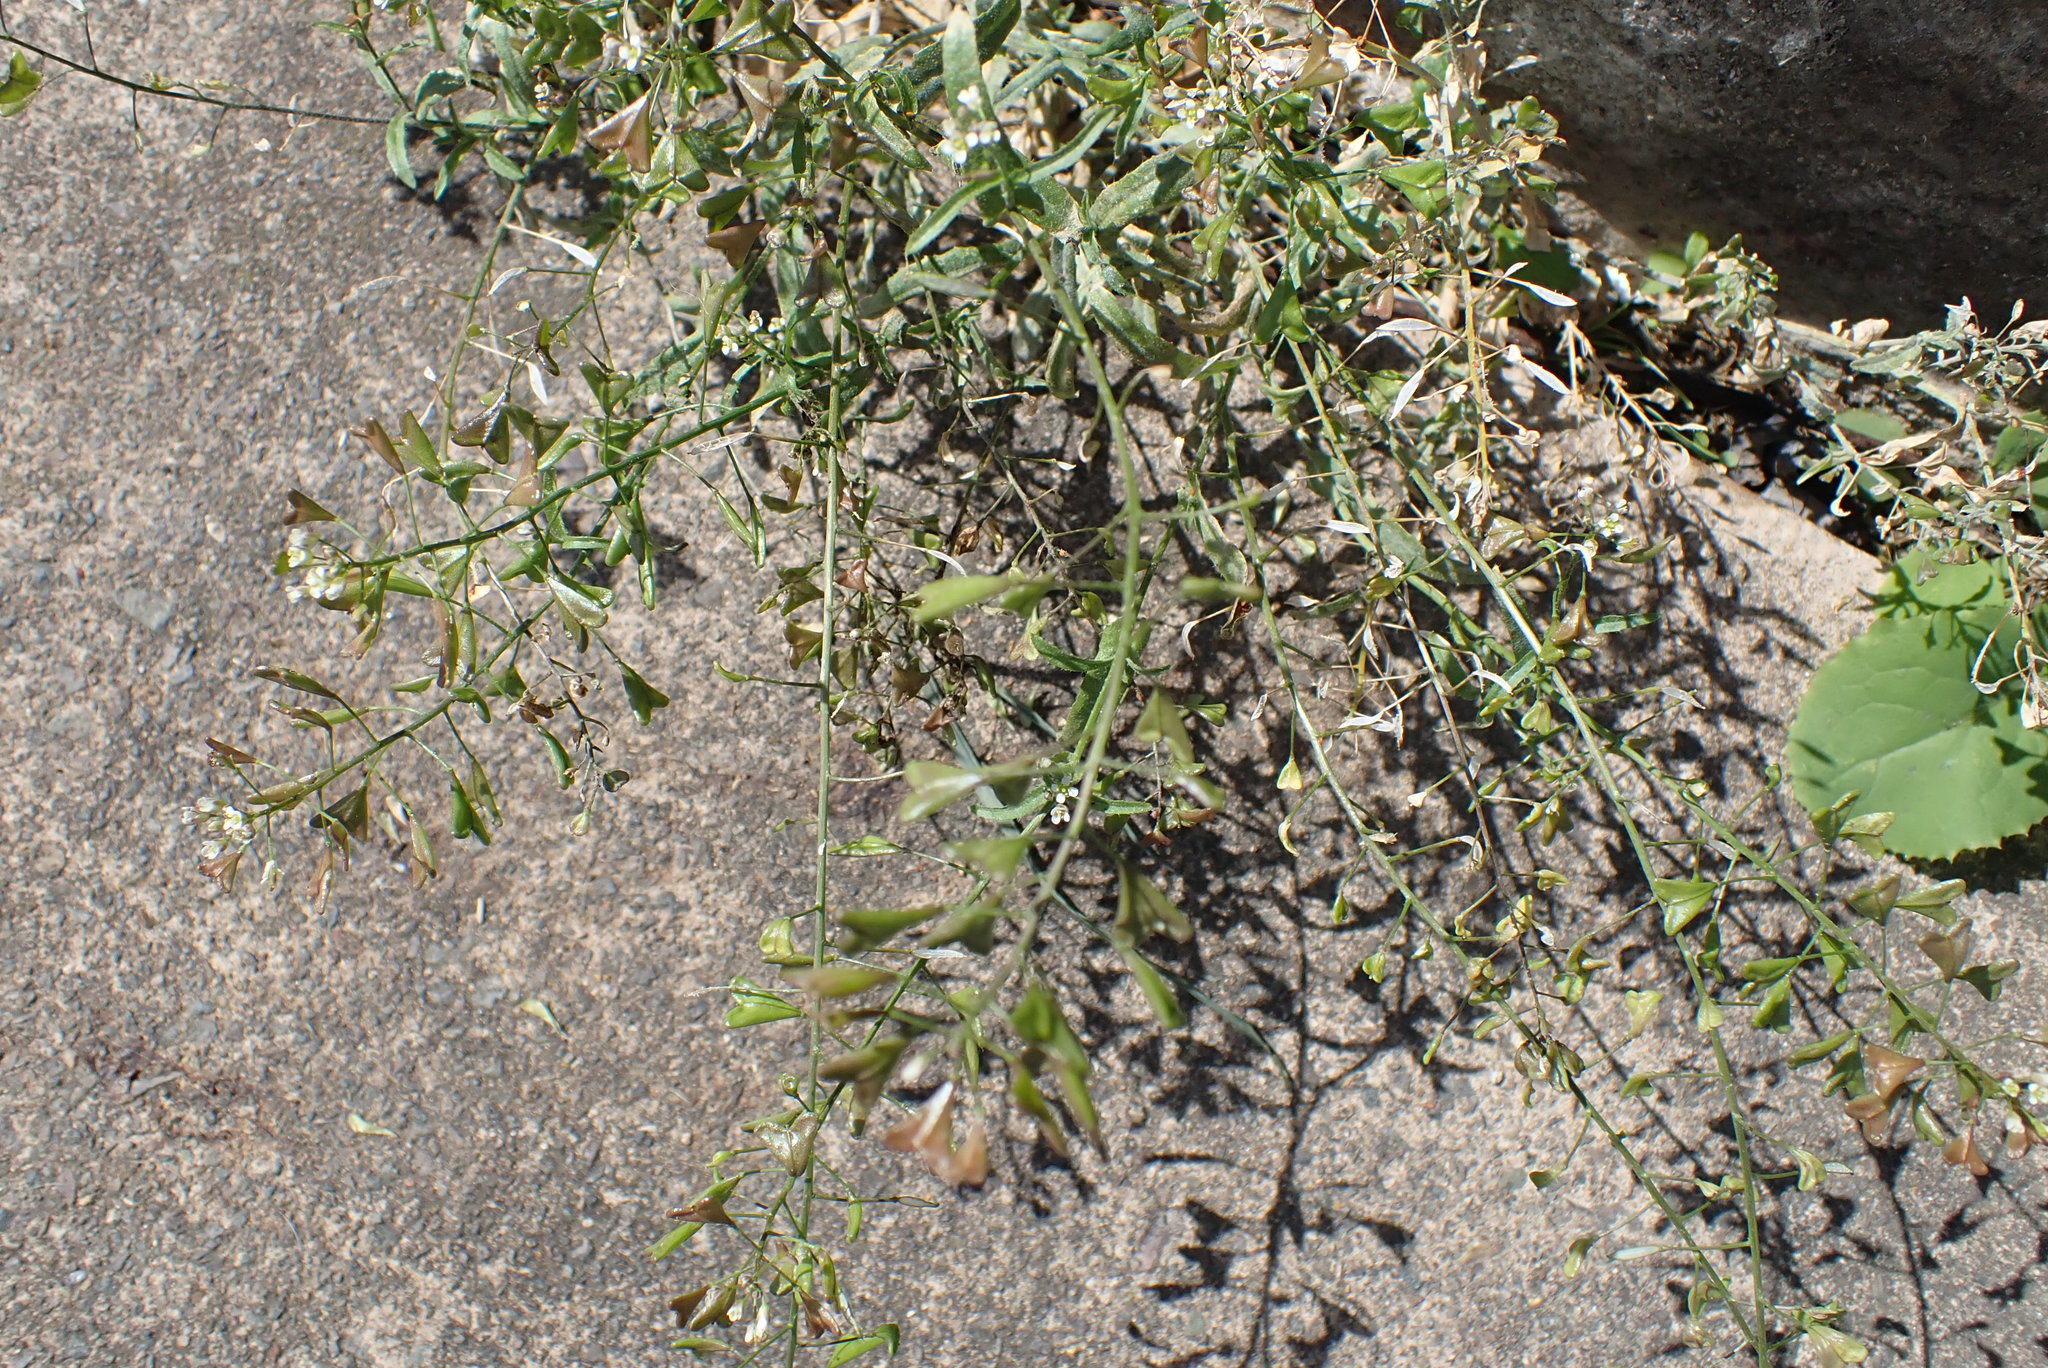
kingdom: Plantae
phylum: Tracheophyta
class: Magnoliopsida
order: Brassicales
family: Brassicaceae
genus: Capsella
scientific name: Capsella bursa-pastoris
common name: Shepherd's purse
